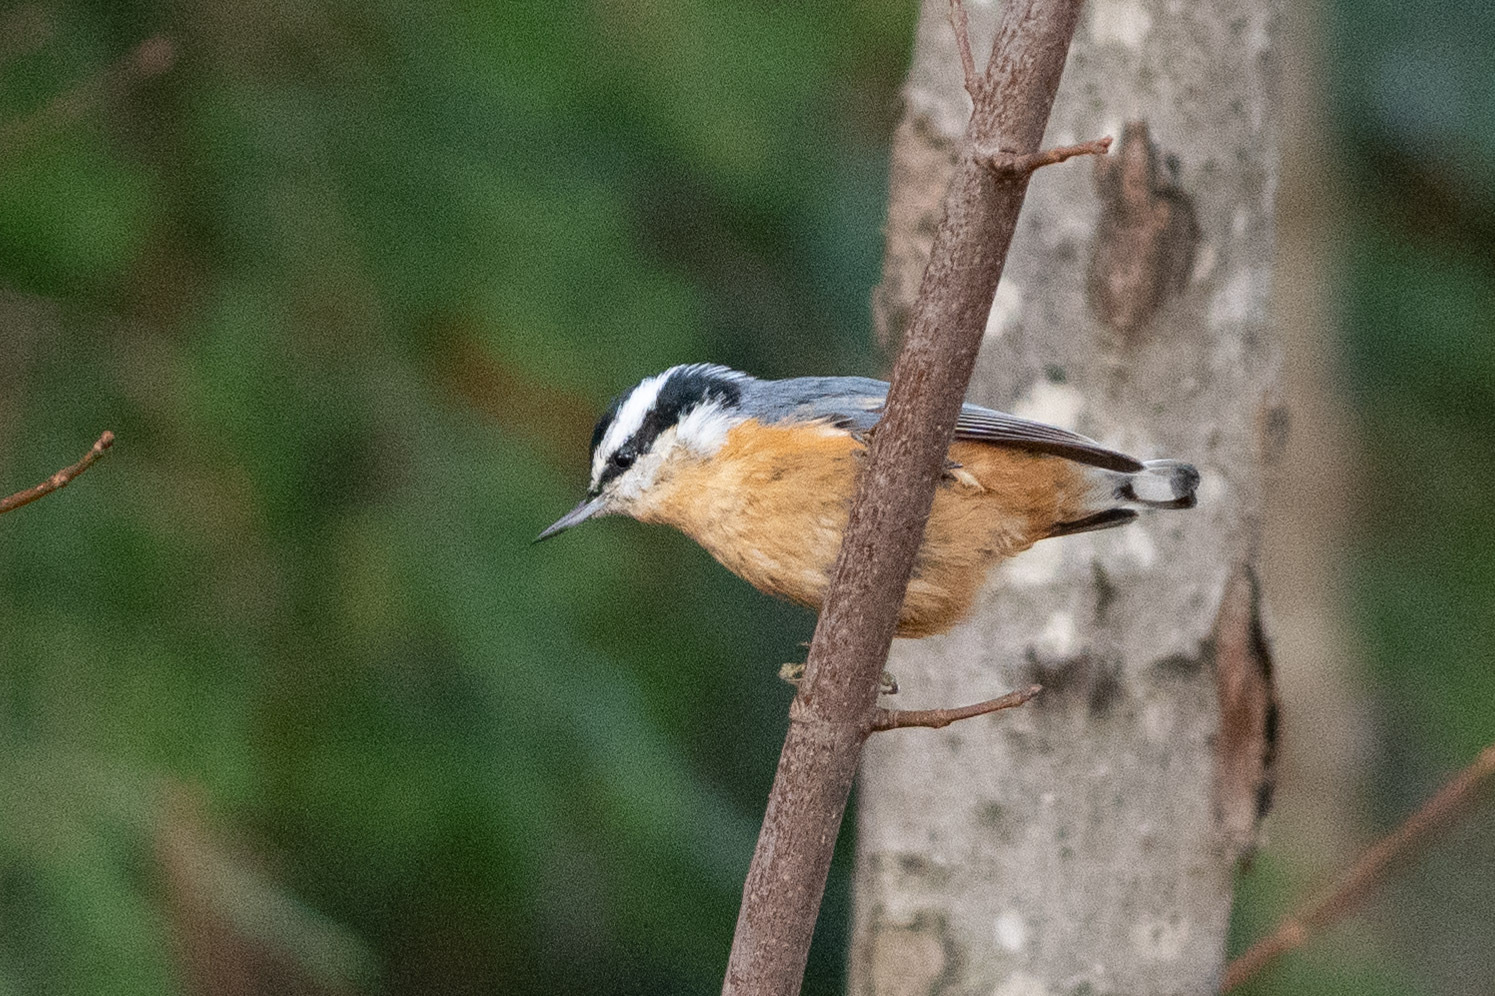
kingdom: Animalia
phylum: Chordata
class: Aves
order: Passeriformes
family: Sittidae
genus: Sitta
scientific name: Sitta canadensis
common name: Red-breasted nuthatch
